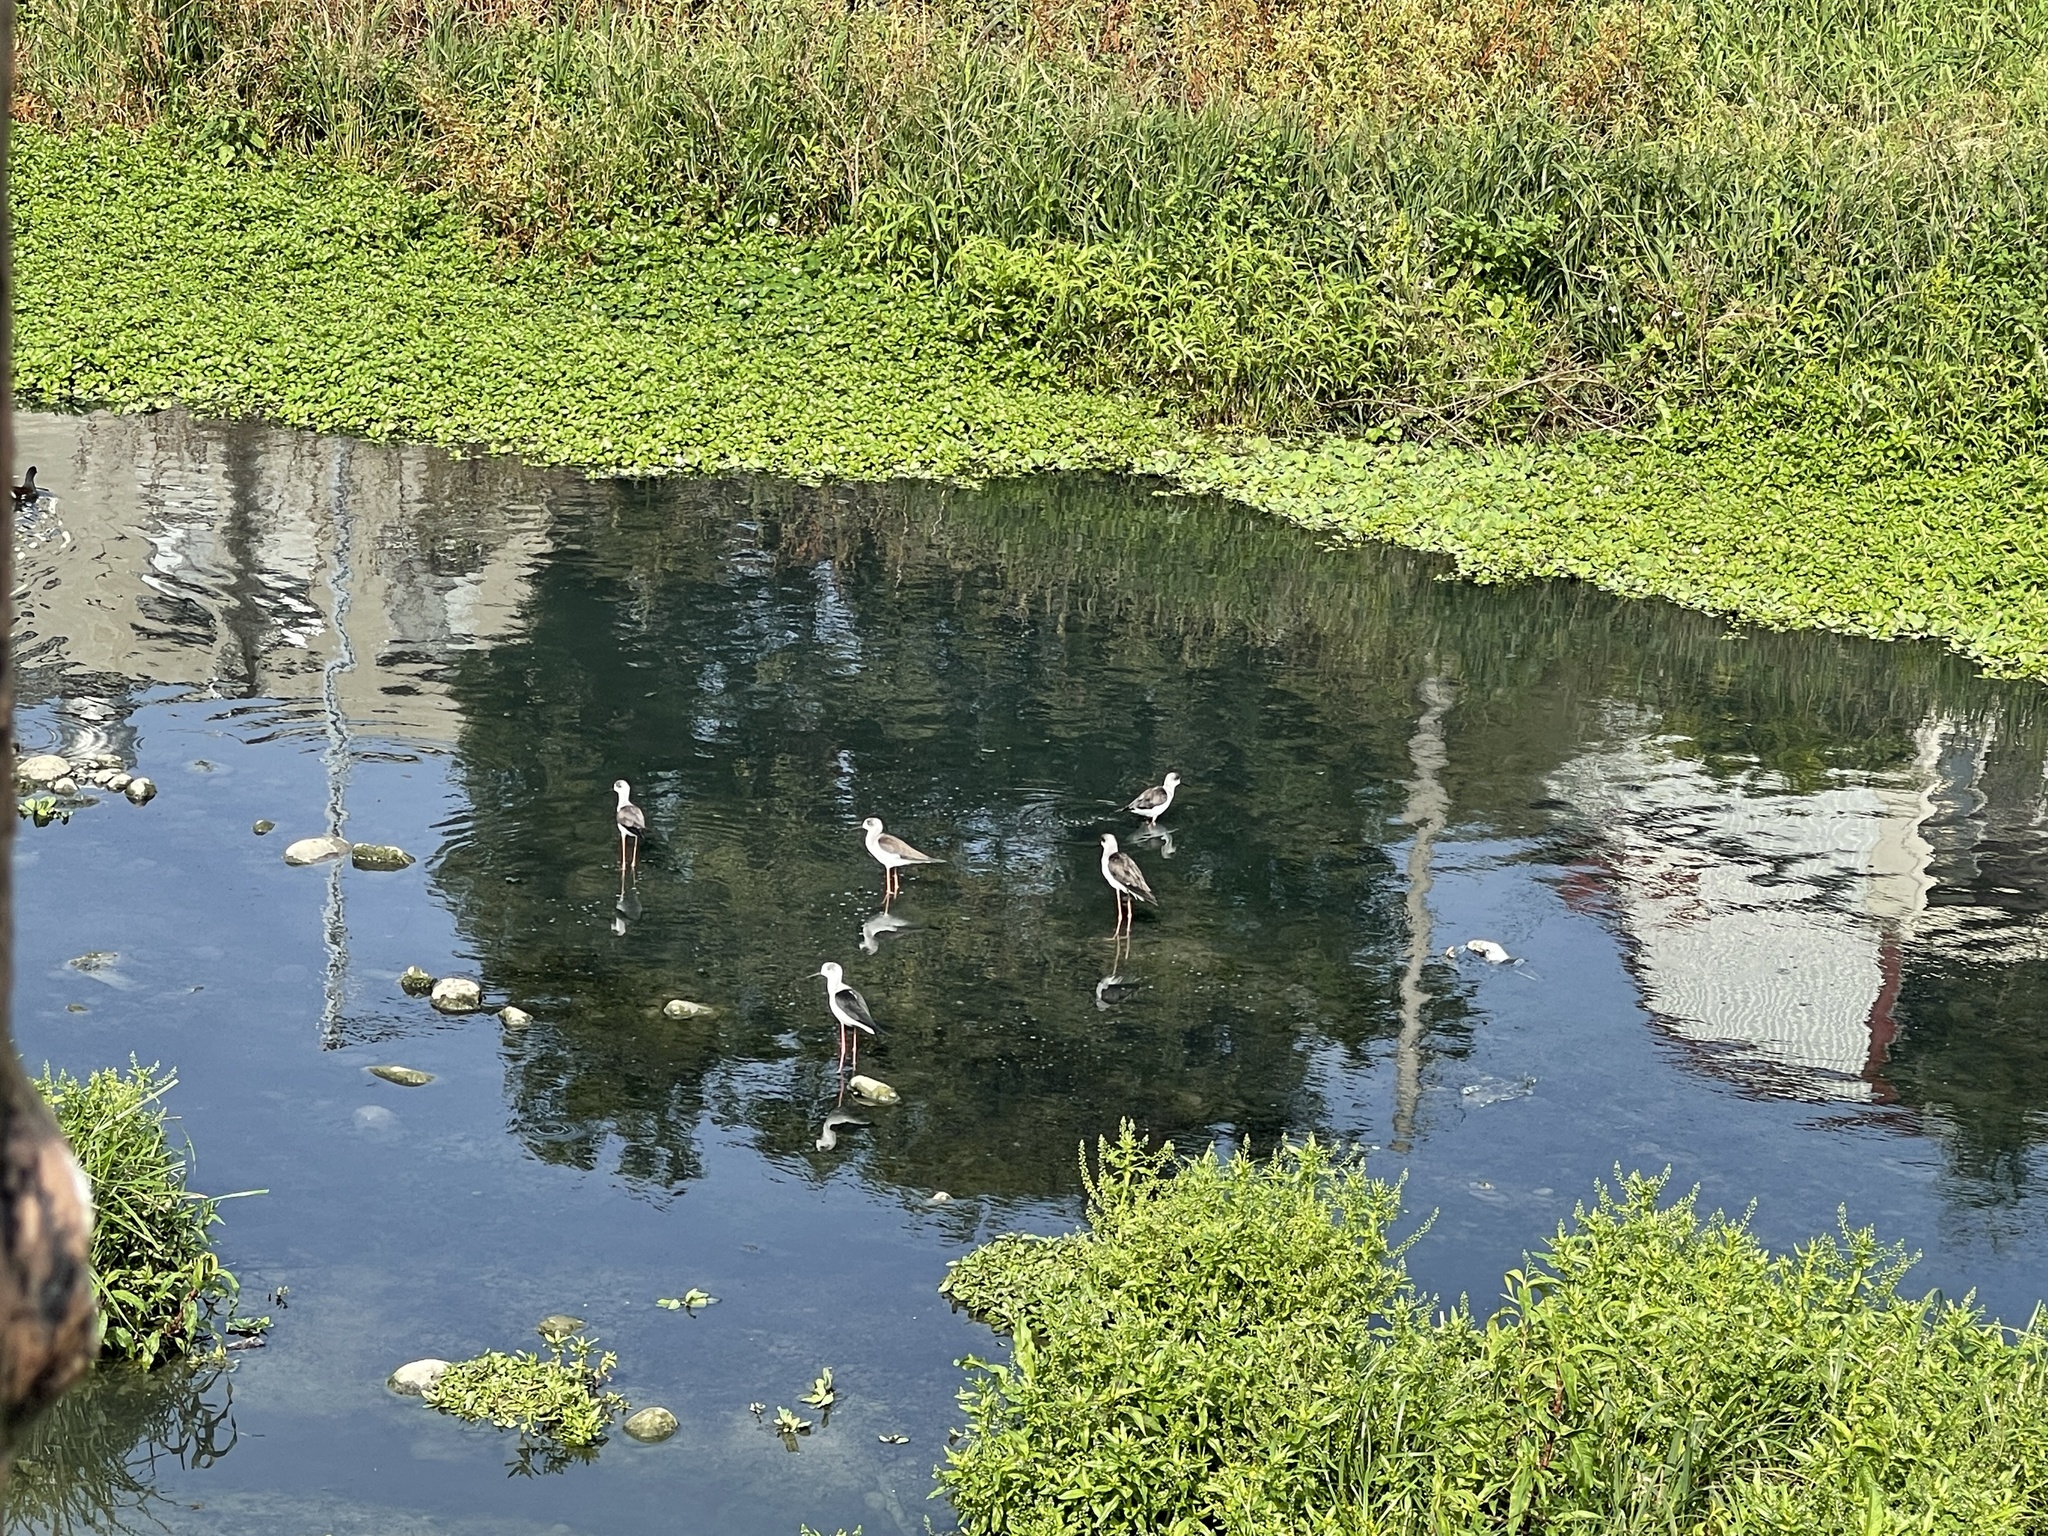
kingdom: Animalia
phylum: Chordata
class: Aves
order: Charadriiformes
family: Recurvirostridae
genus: Himantopus
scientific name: Himantopus himantopus
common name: Black-winged stilt
